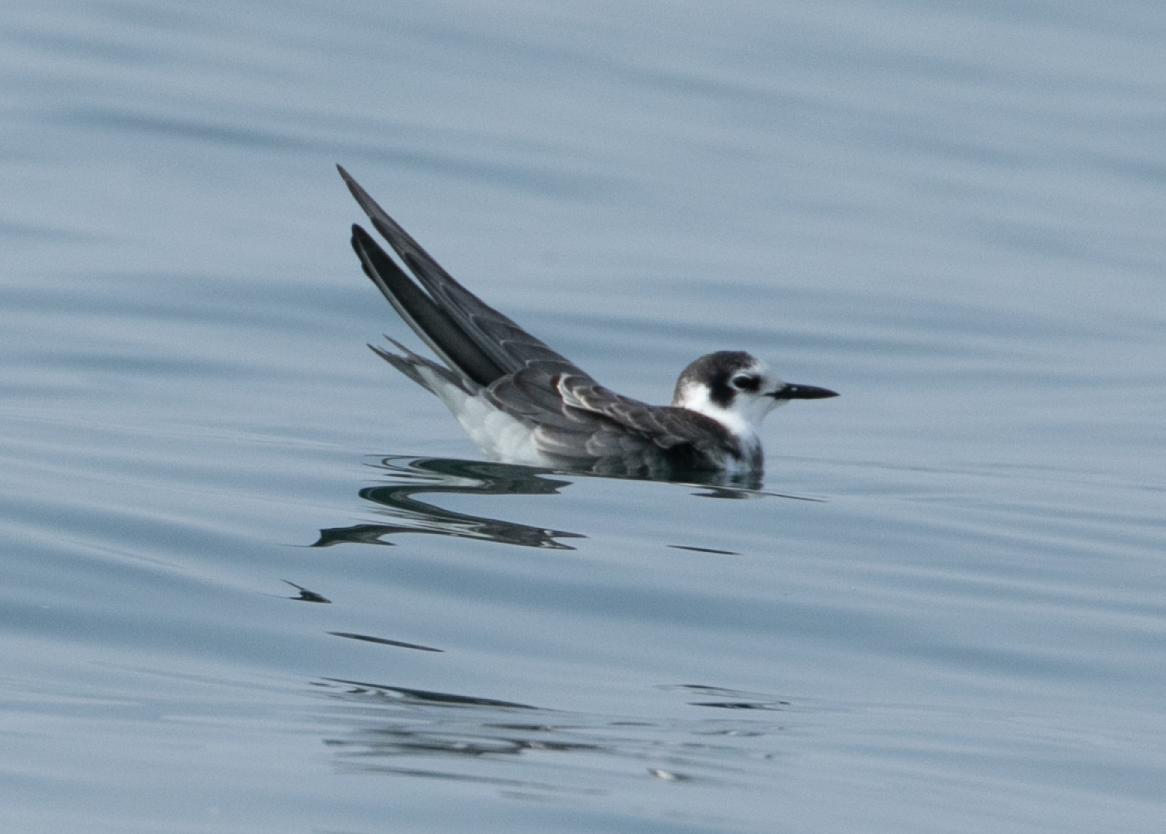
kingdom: Animalia
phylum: Chordata
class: Aves
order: Charadriiformes
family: Laridae
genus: Chlidonias
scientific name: Chlidonias niger
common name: Black tern
